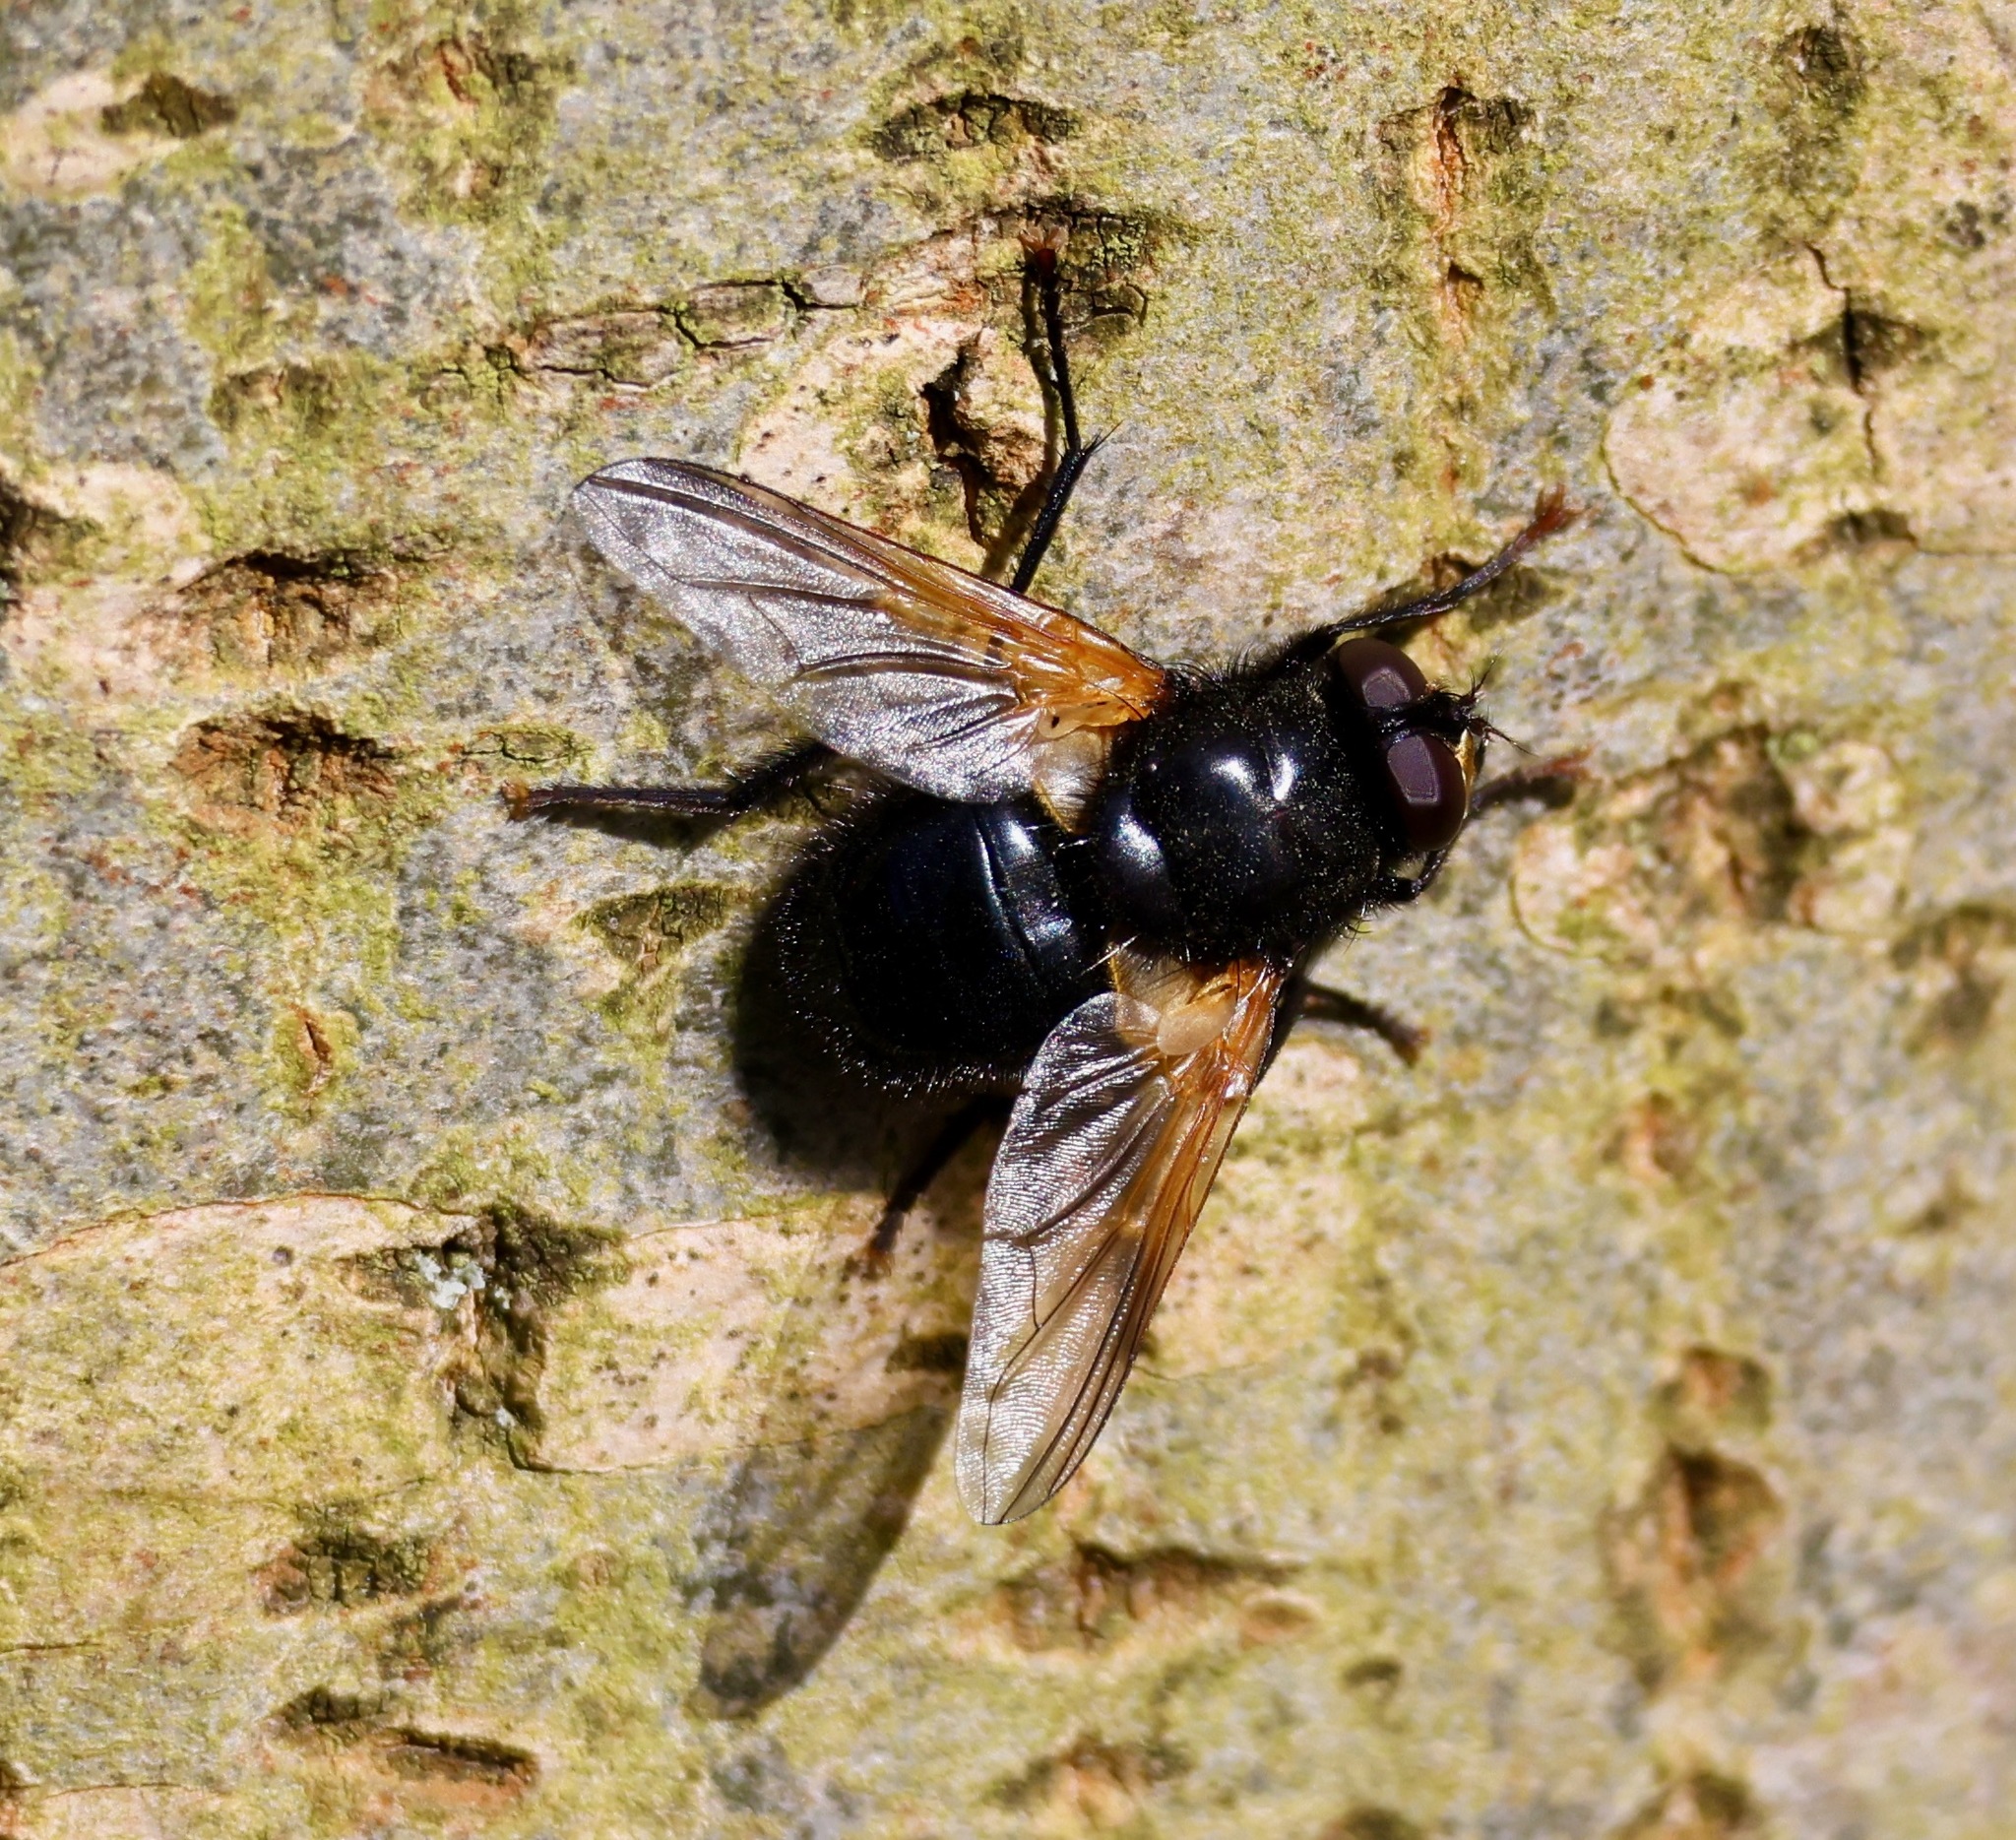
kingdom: Animalia
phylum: Arthropoda
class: Insecta
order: Diptera
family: Muscidae
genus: Mesembrina
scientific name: Mesembrina meridiana
